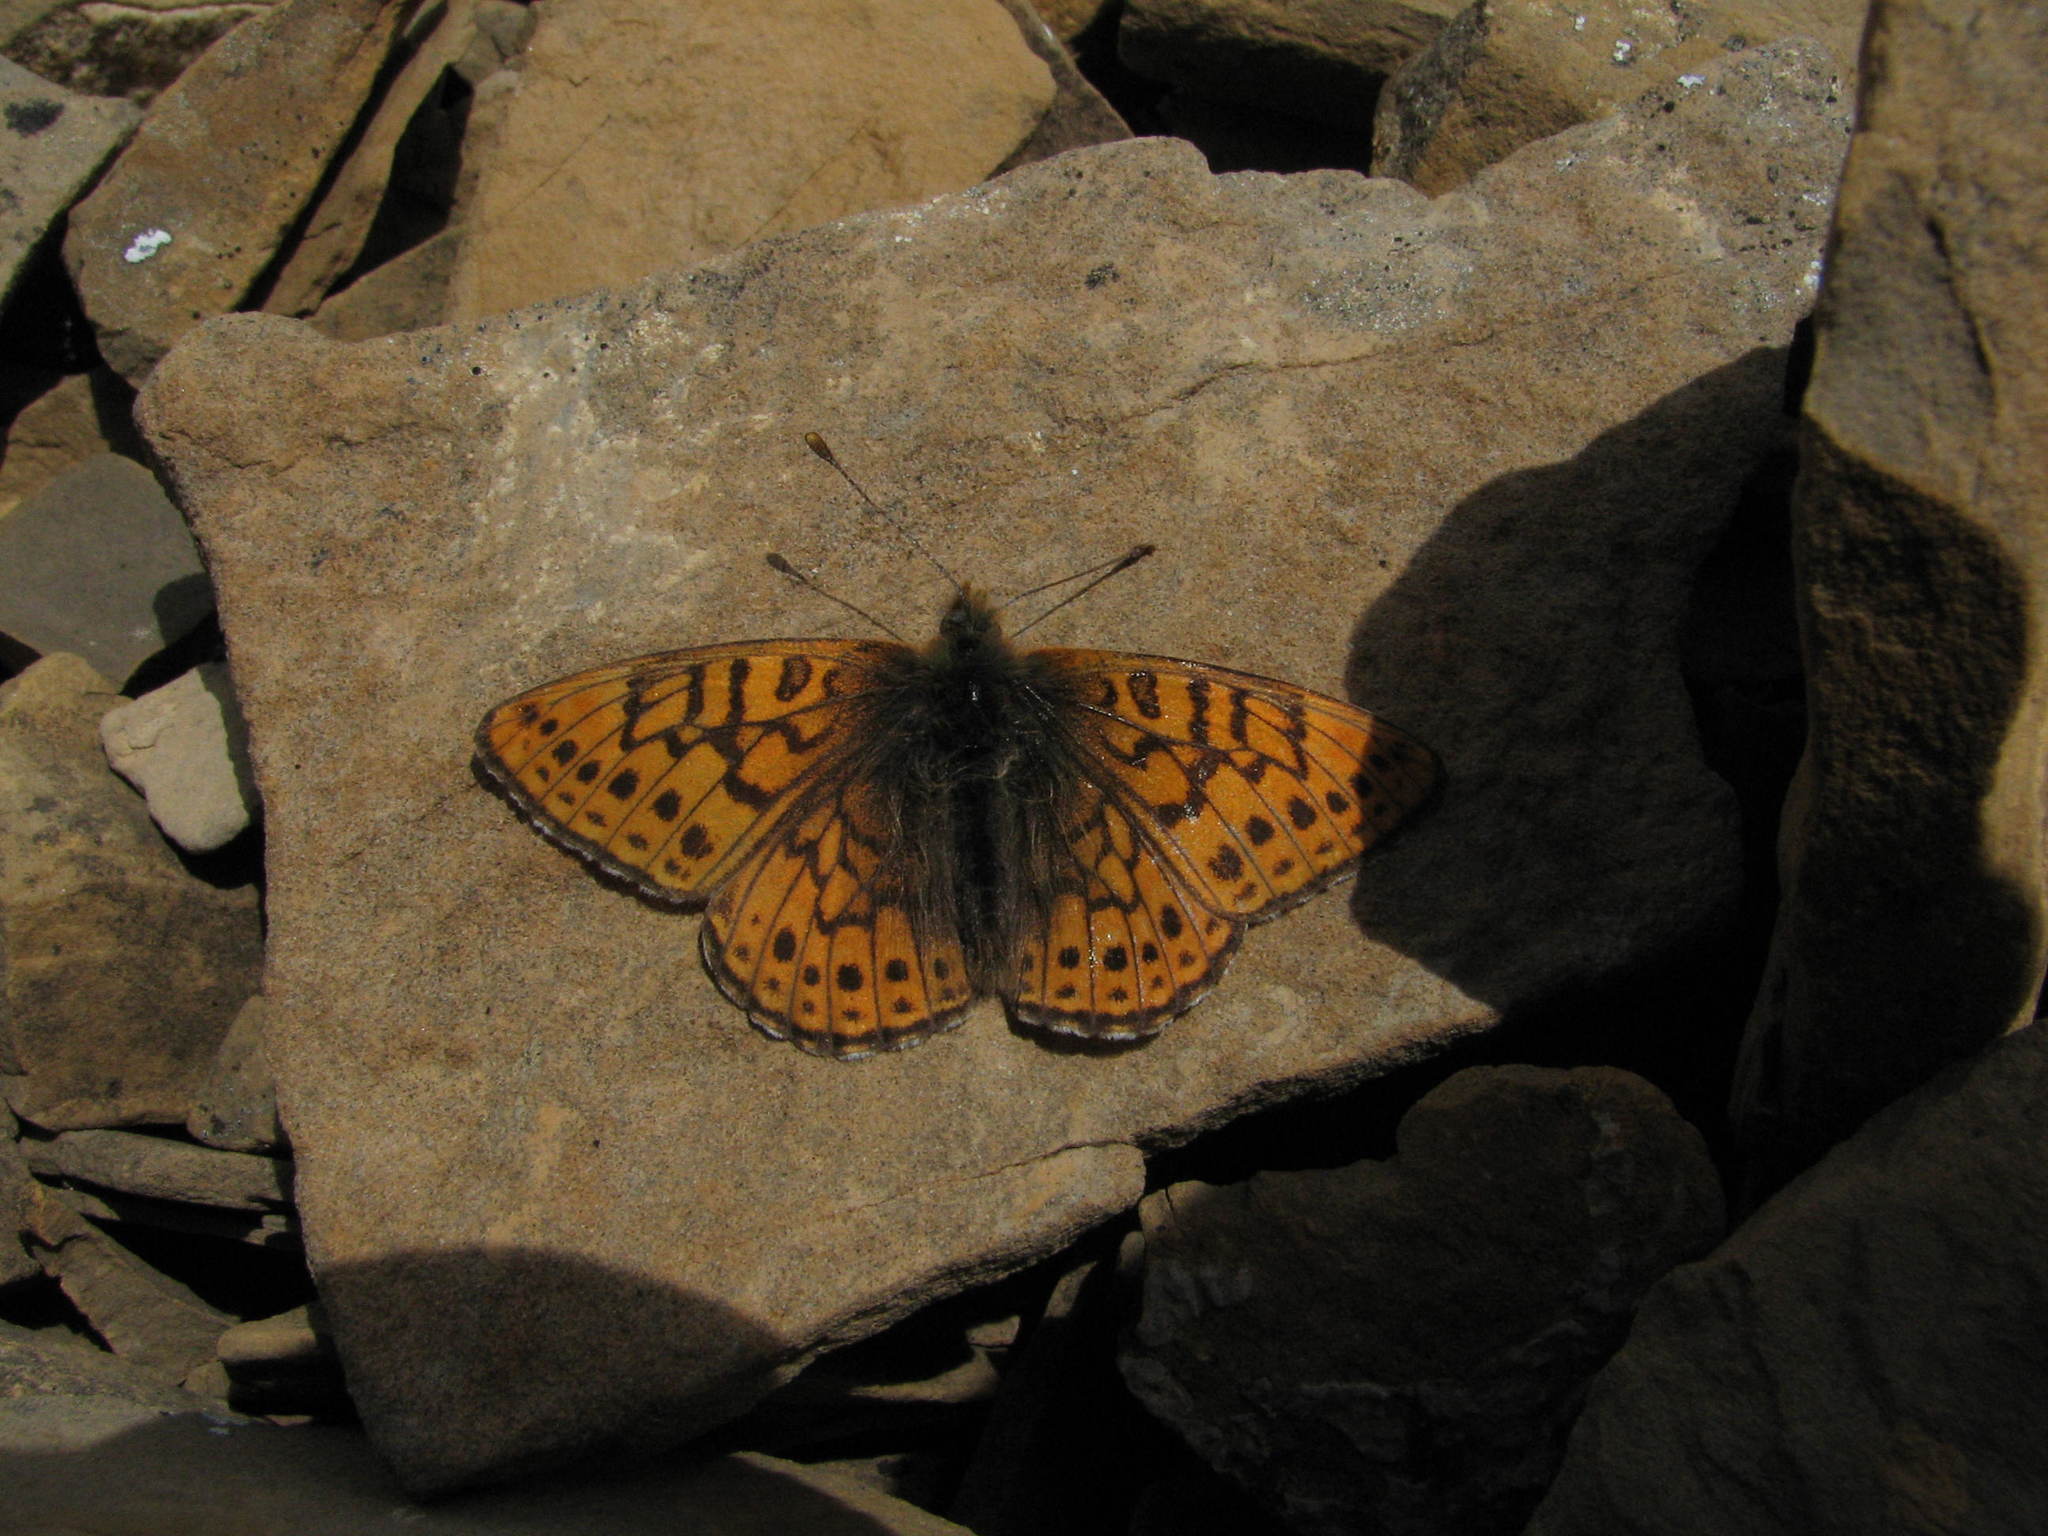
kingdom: Animalia
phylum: Arthropoda
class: Insecta
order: Lepidoptera
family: Nymphalidae
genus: Clossiana
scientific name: Clossiana astarte
